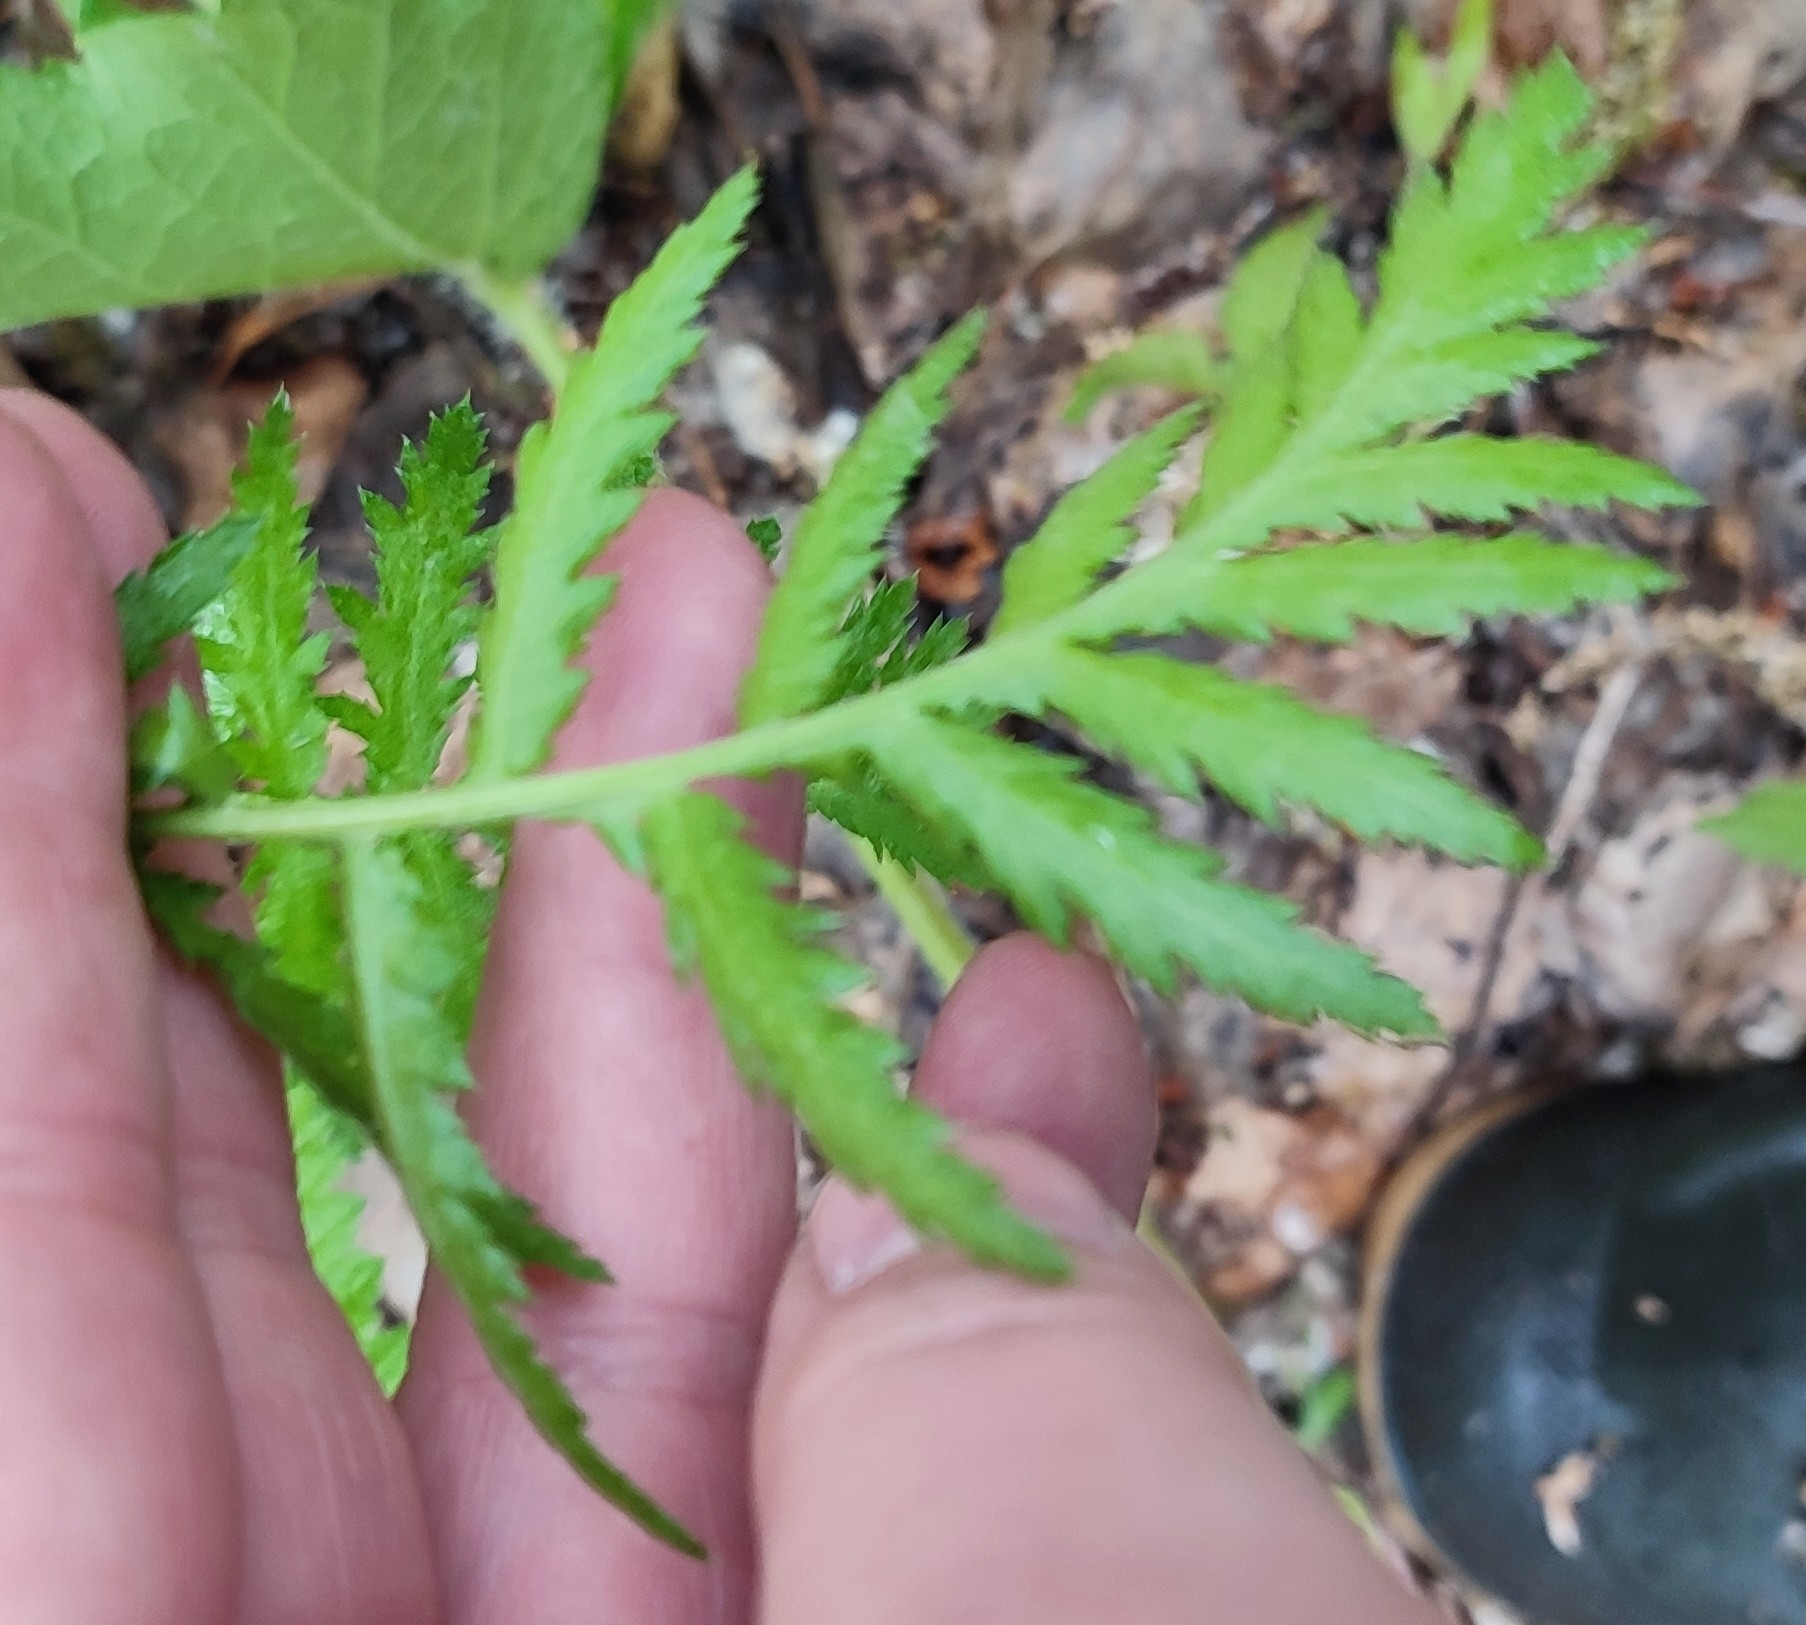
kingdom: Plantae
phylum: Tracheophyta
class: Magnoliopsida
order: Asterales
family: Asteraceae
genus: Tanacetum
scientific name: Tanacetum vulgare
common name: Common tansy
